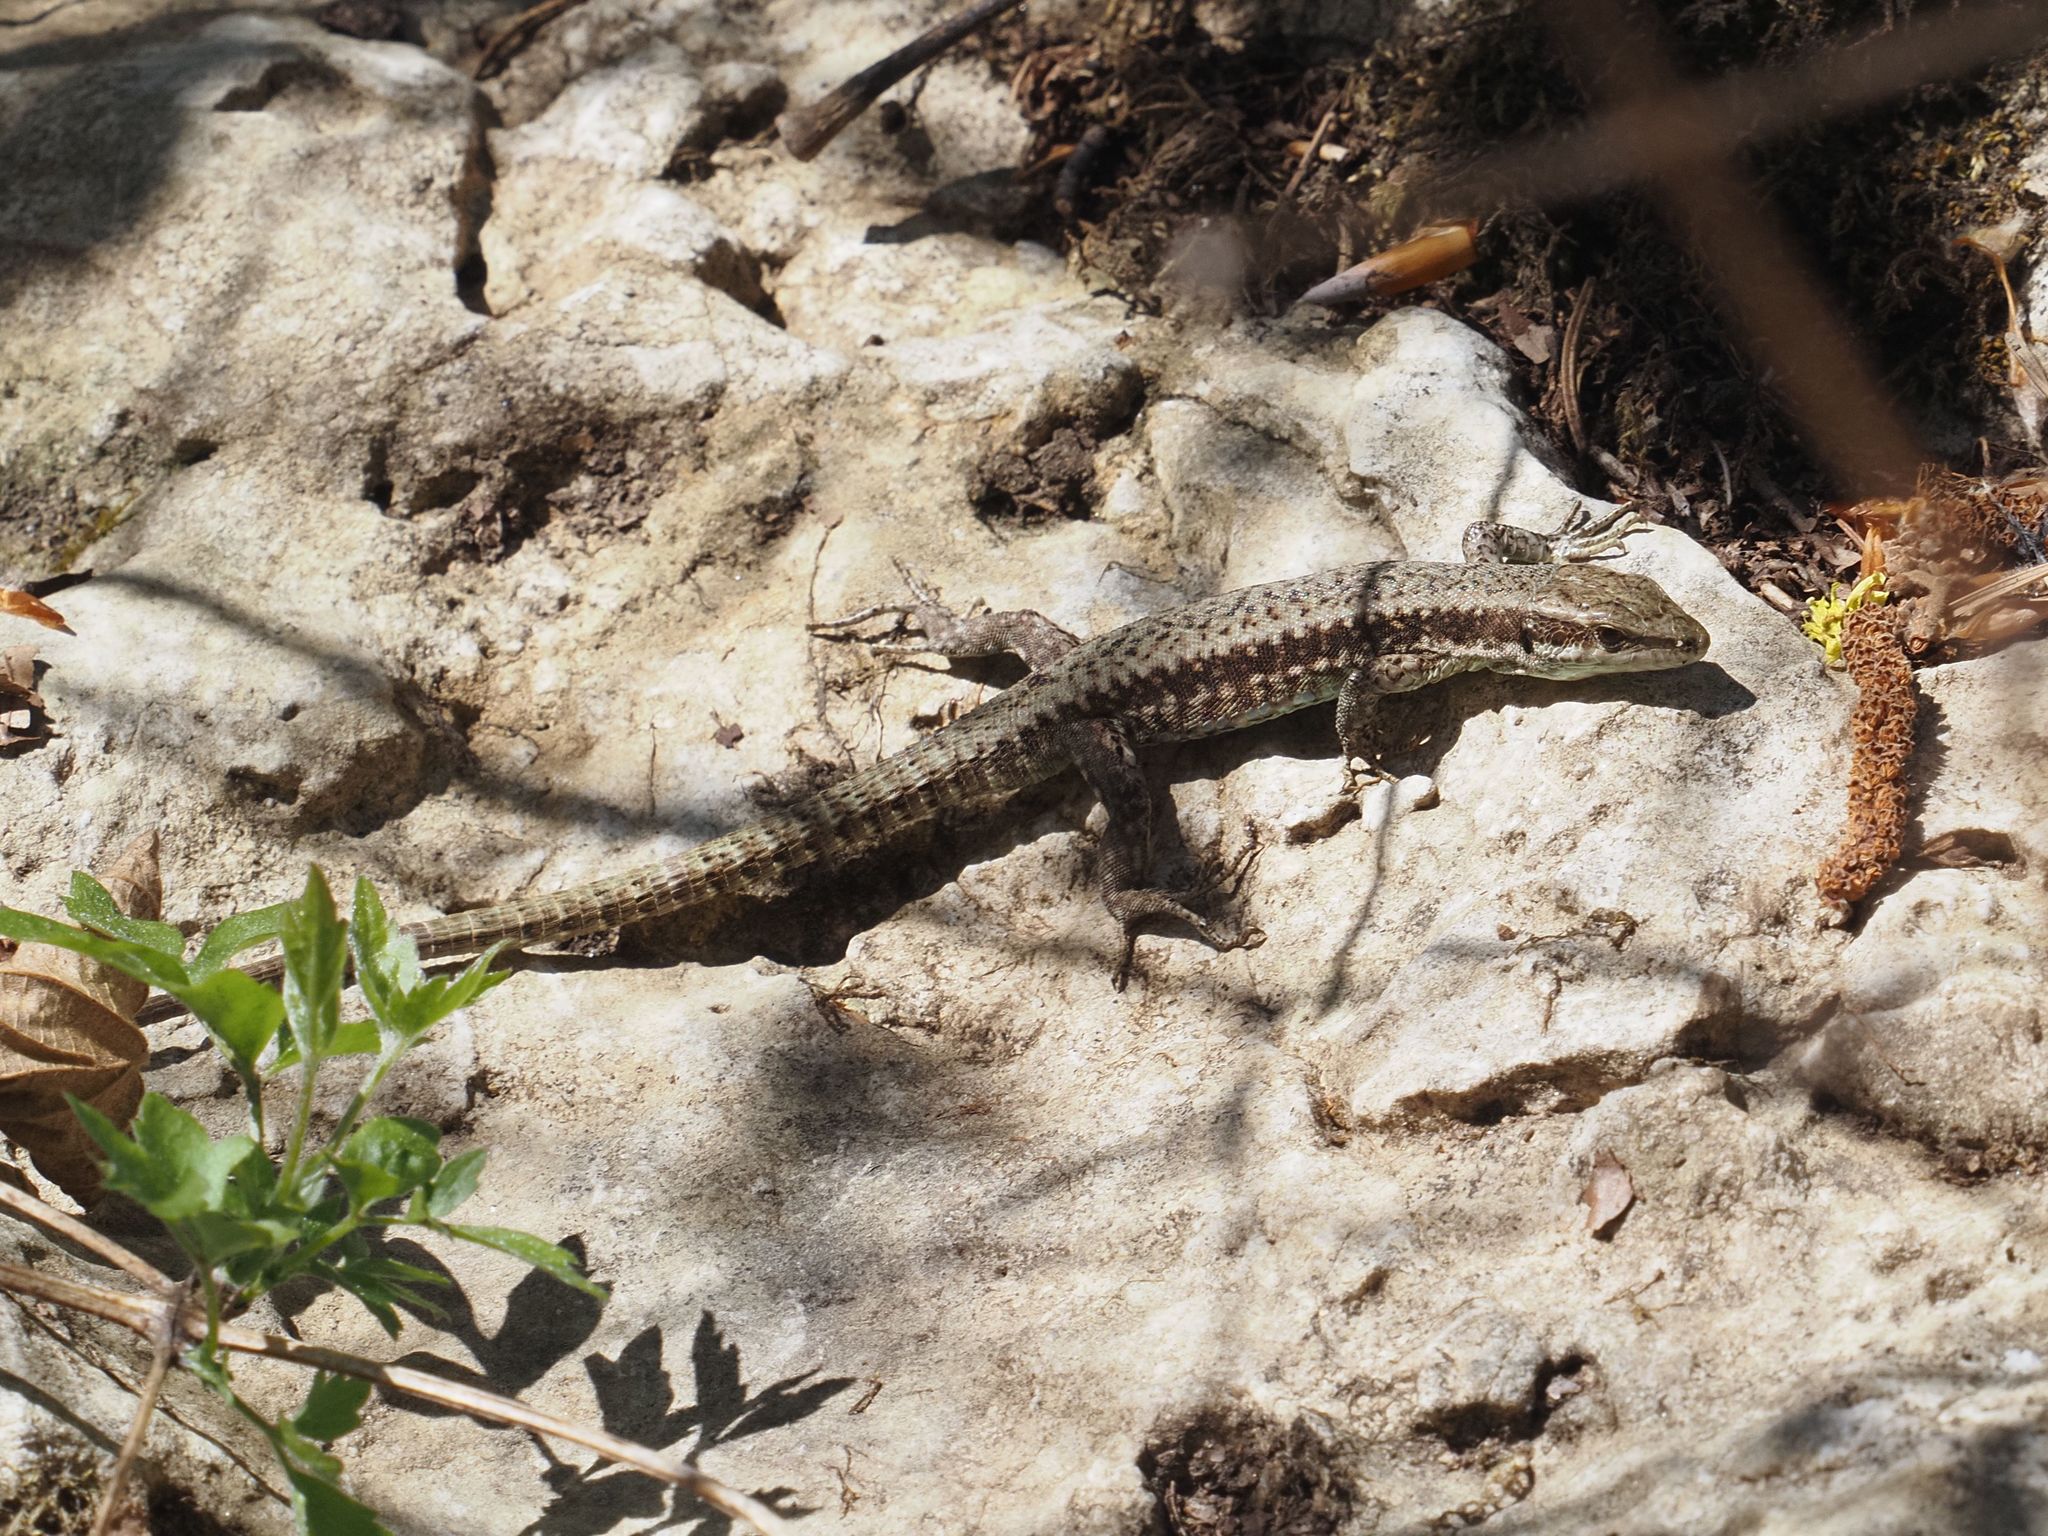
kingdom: Animalia
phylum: Chordata
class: Squamata
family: Lacertidae
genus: Podarcis
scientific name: Podarcis muralis
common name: Common wall lizard
